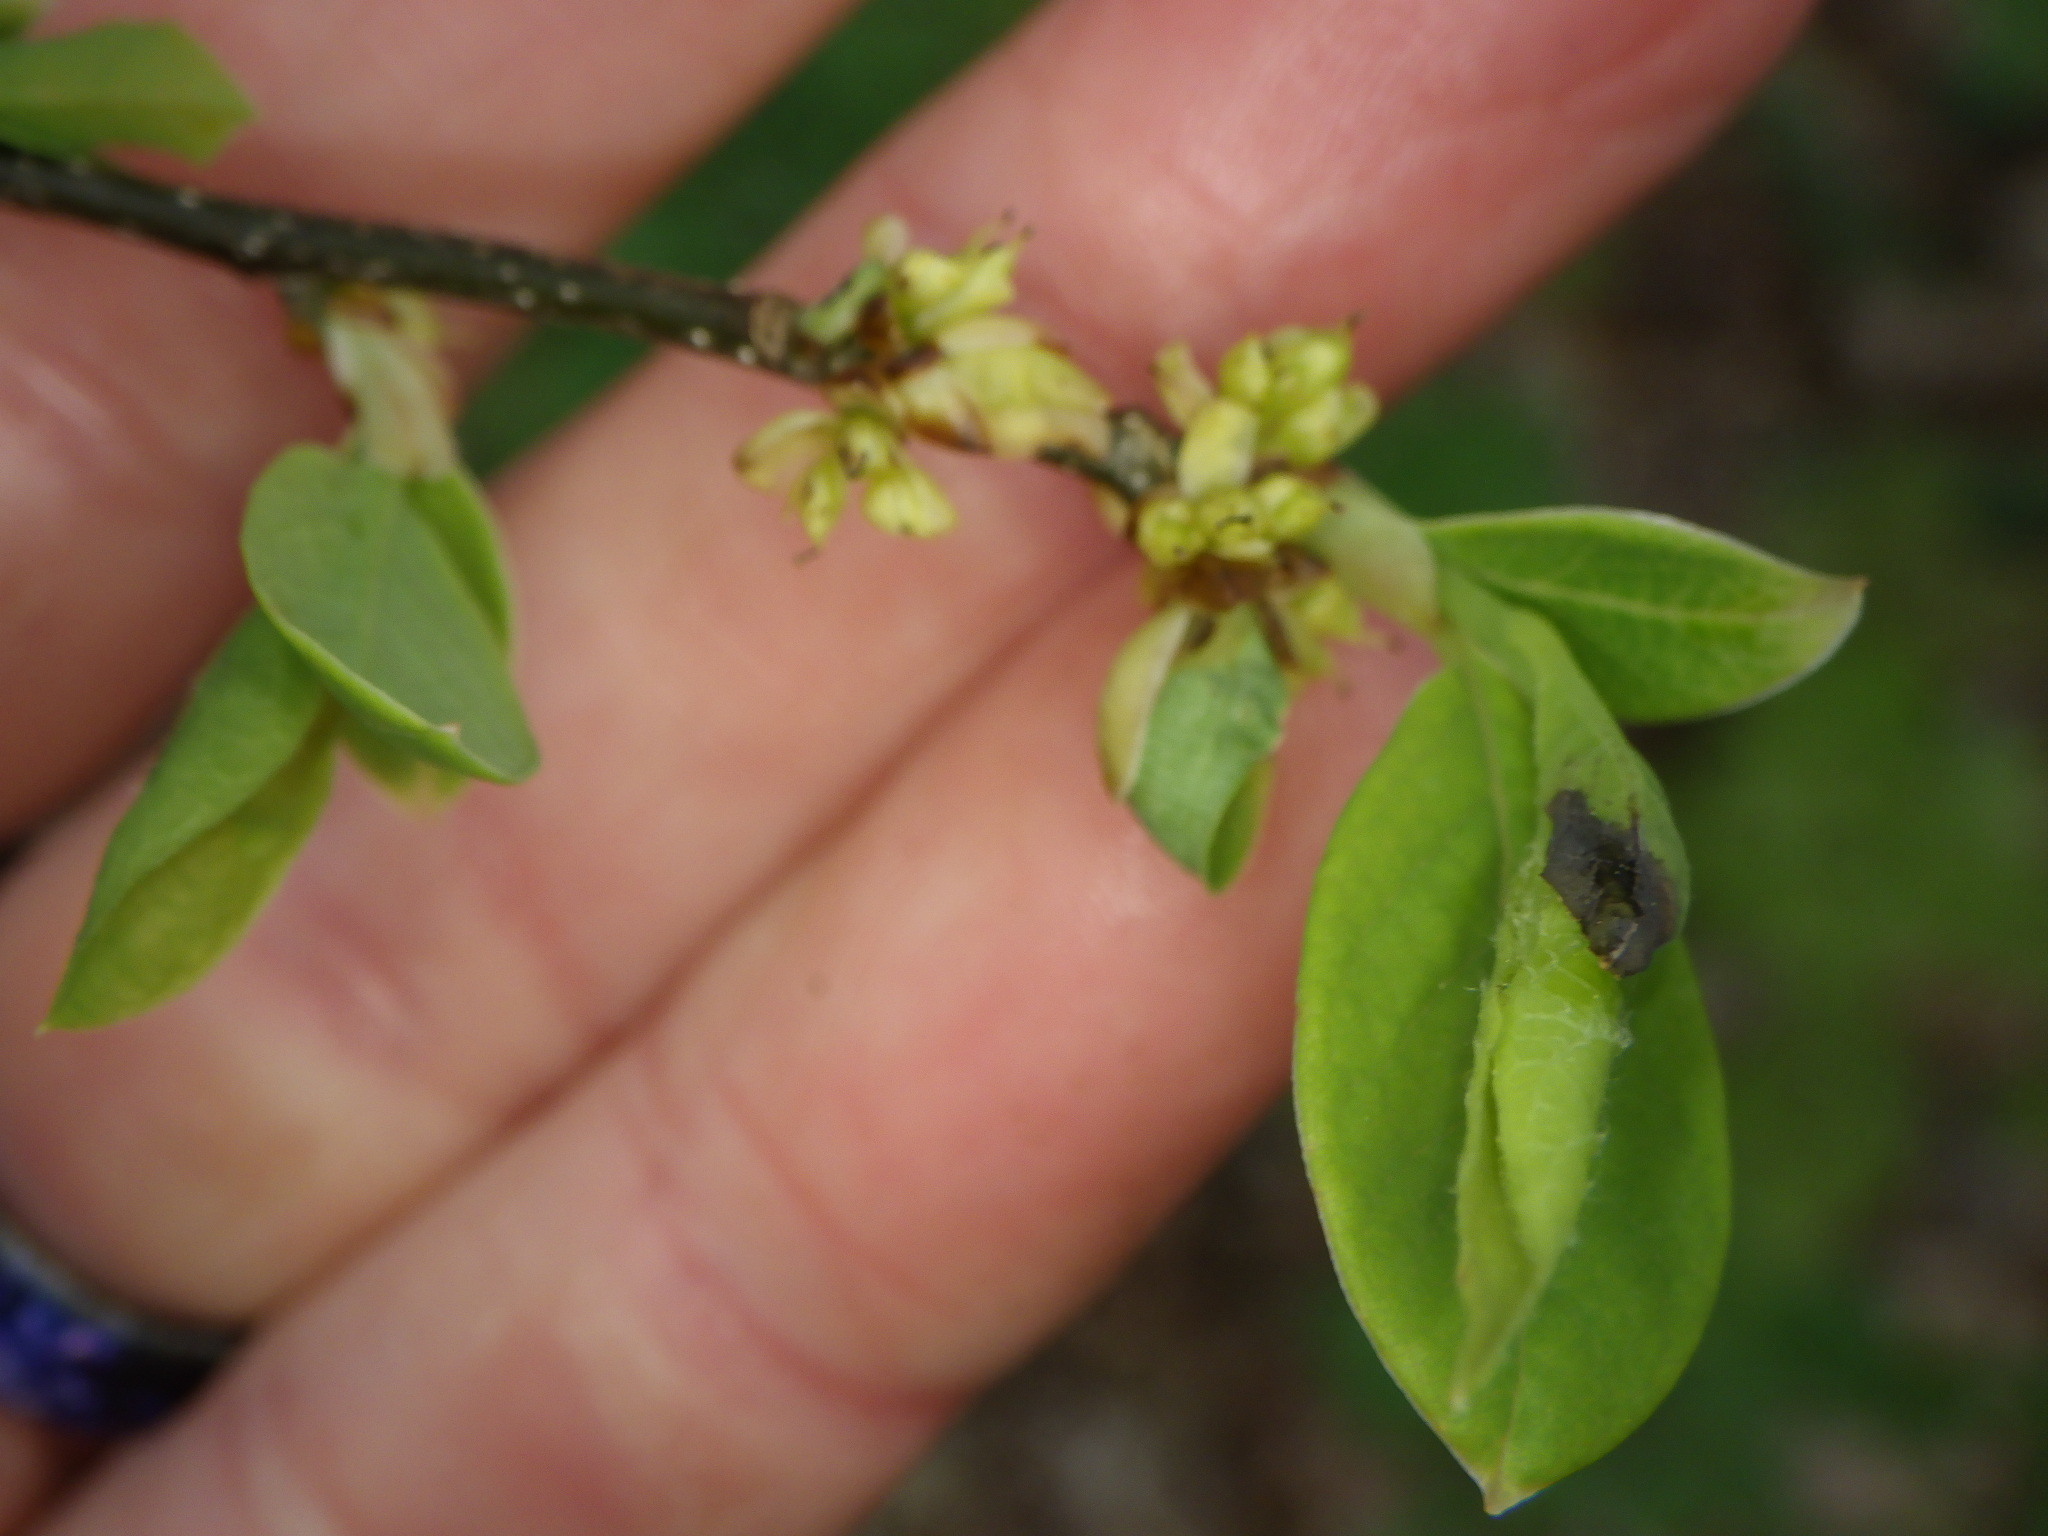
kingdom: Plantae
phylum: Tracheophyta
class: Magnoliopsida
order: Laurales
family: Lauraceae
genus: Lindera
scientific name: Lindera benzoin
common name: Spicebush
